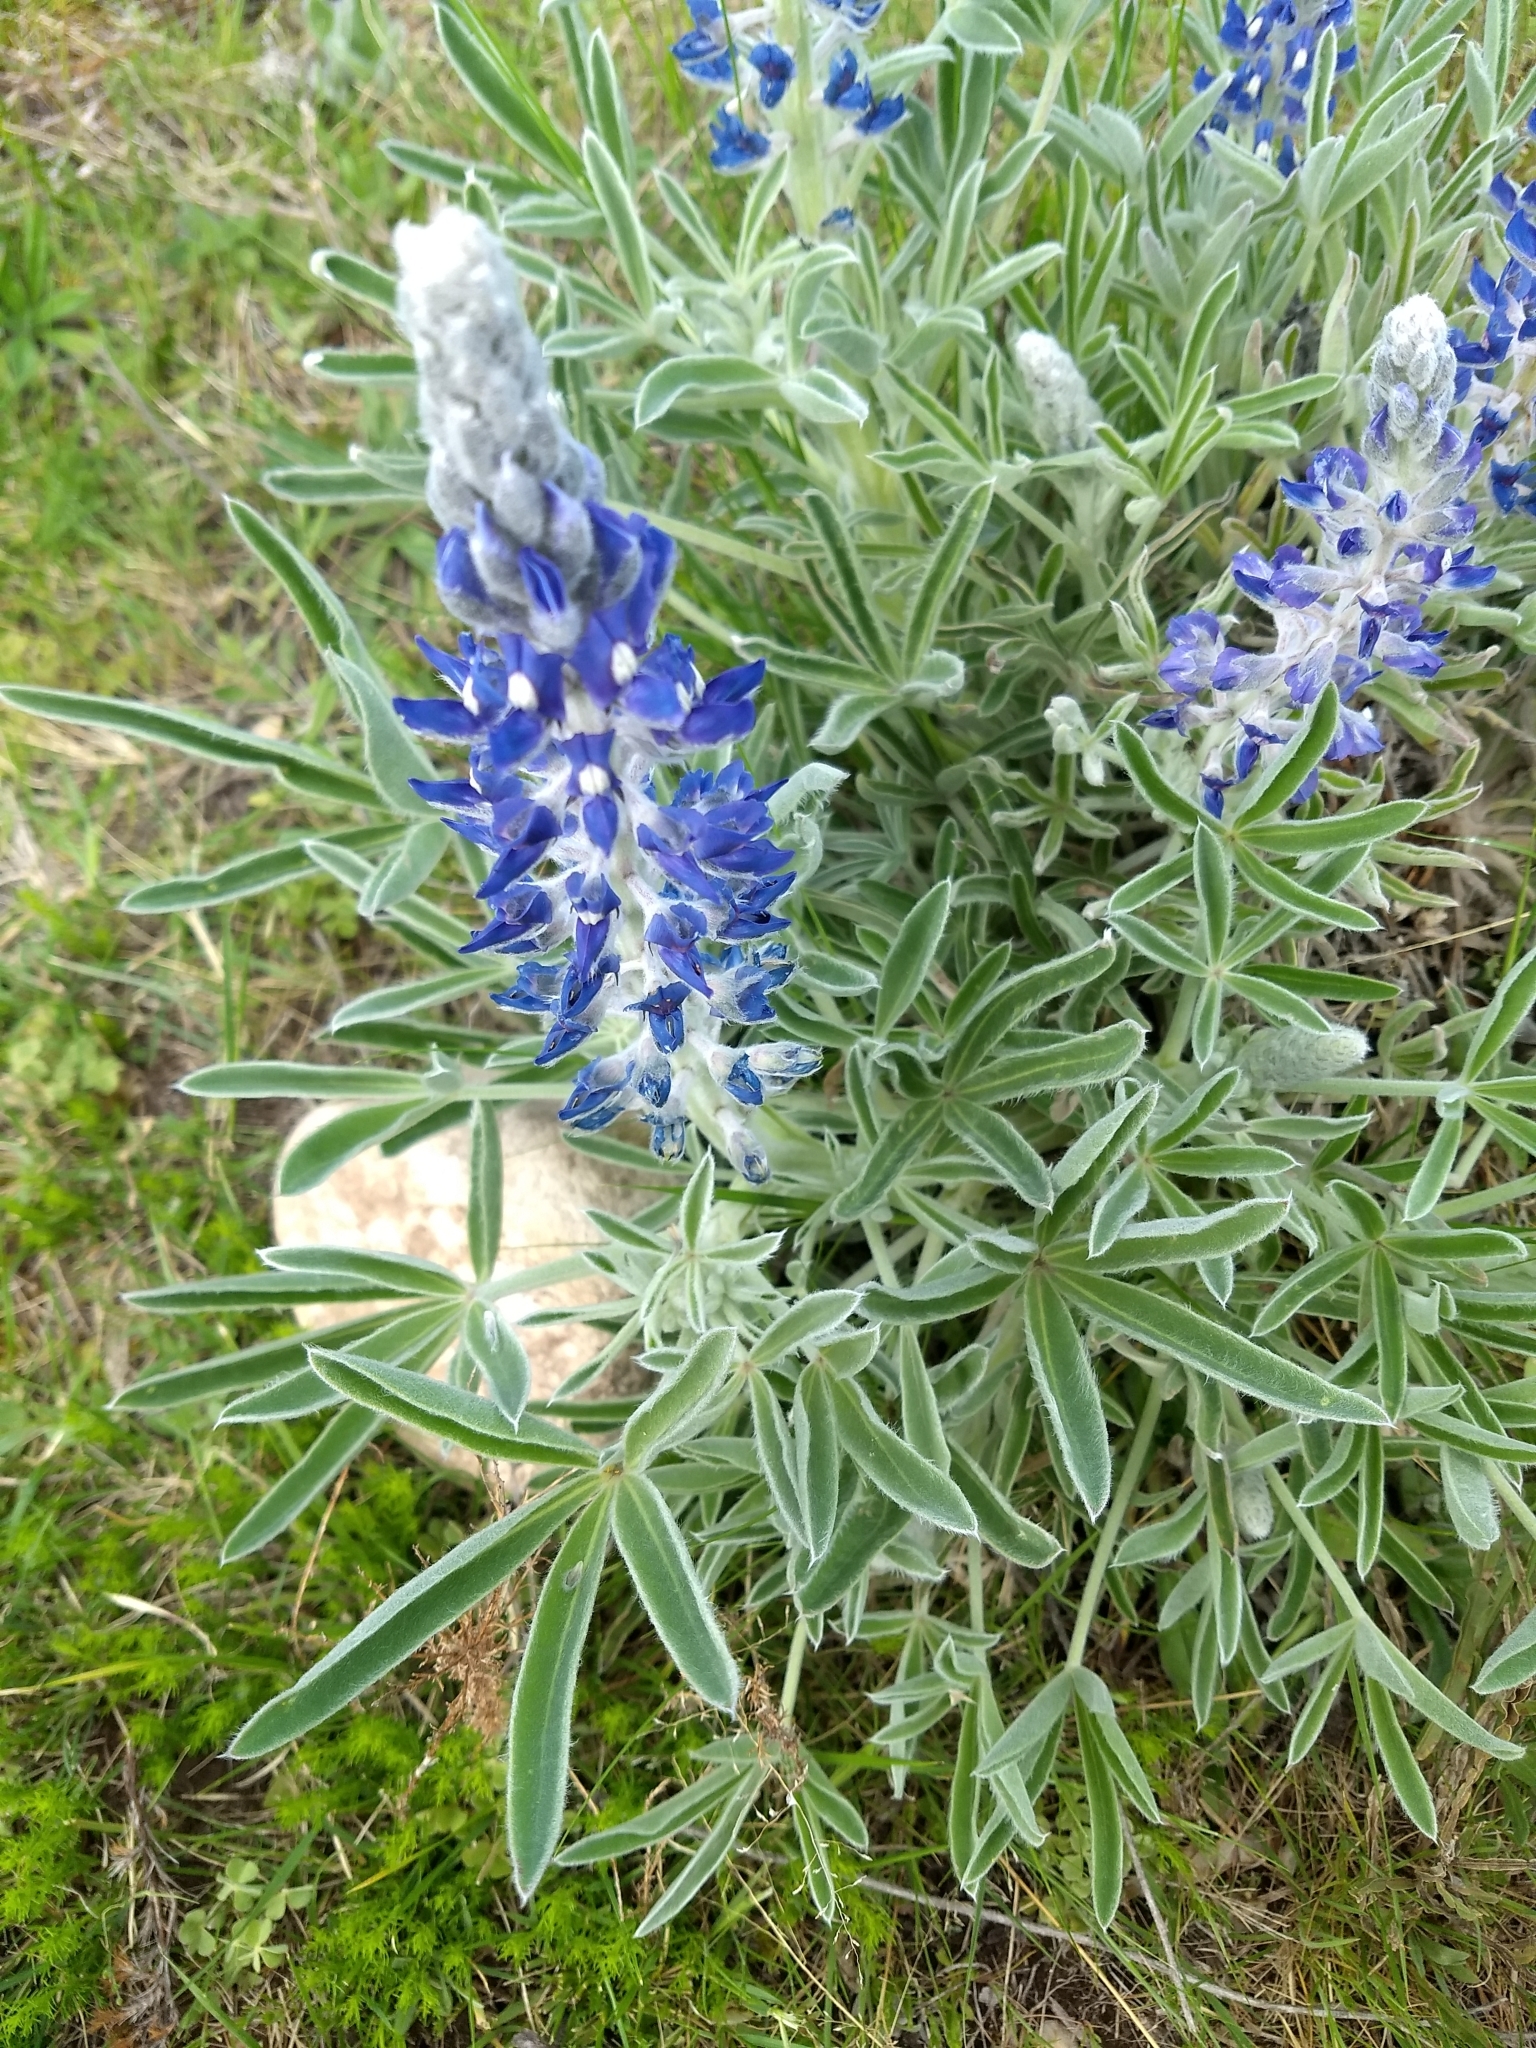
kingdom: Plantae
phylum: Tracheophyta
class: Magnoliopsida
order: Fabales
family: Fabaceae
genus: Lupinus
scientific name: Lupinus aureonitens
